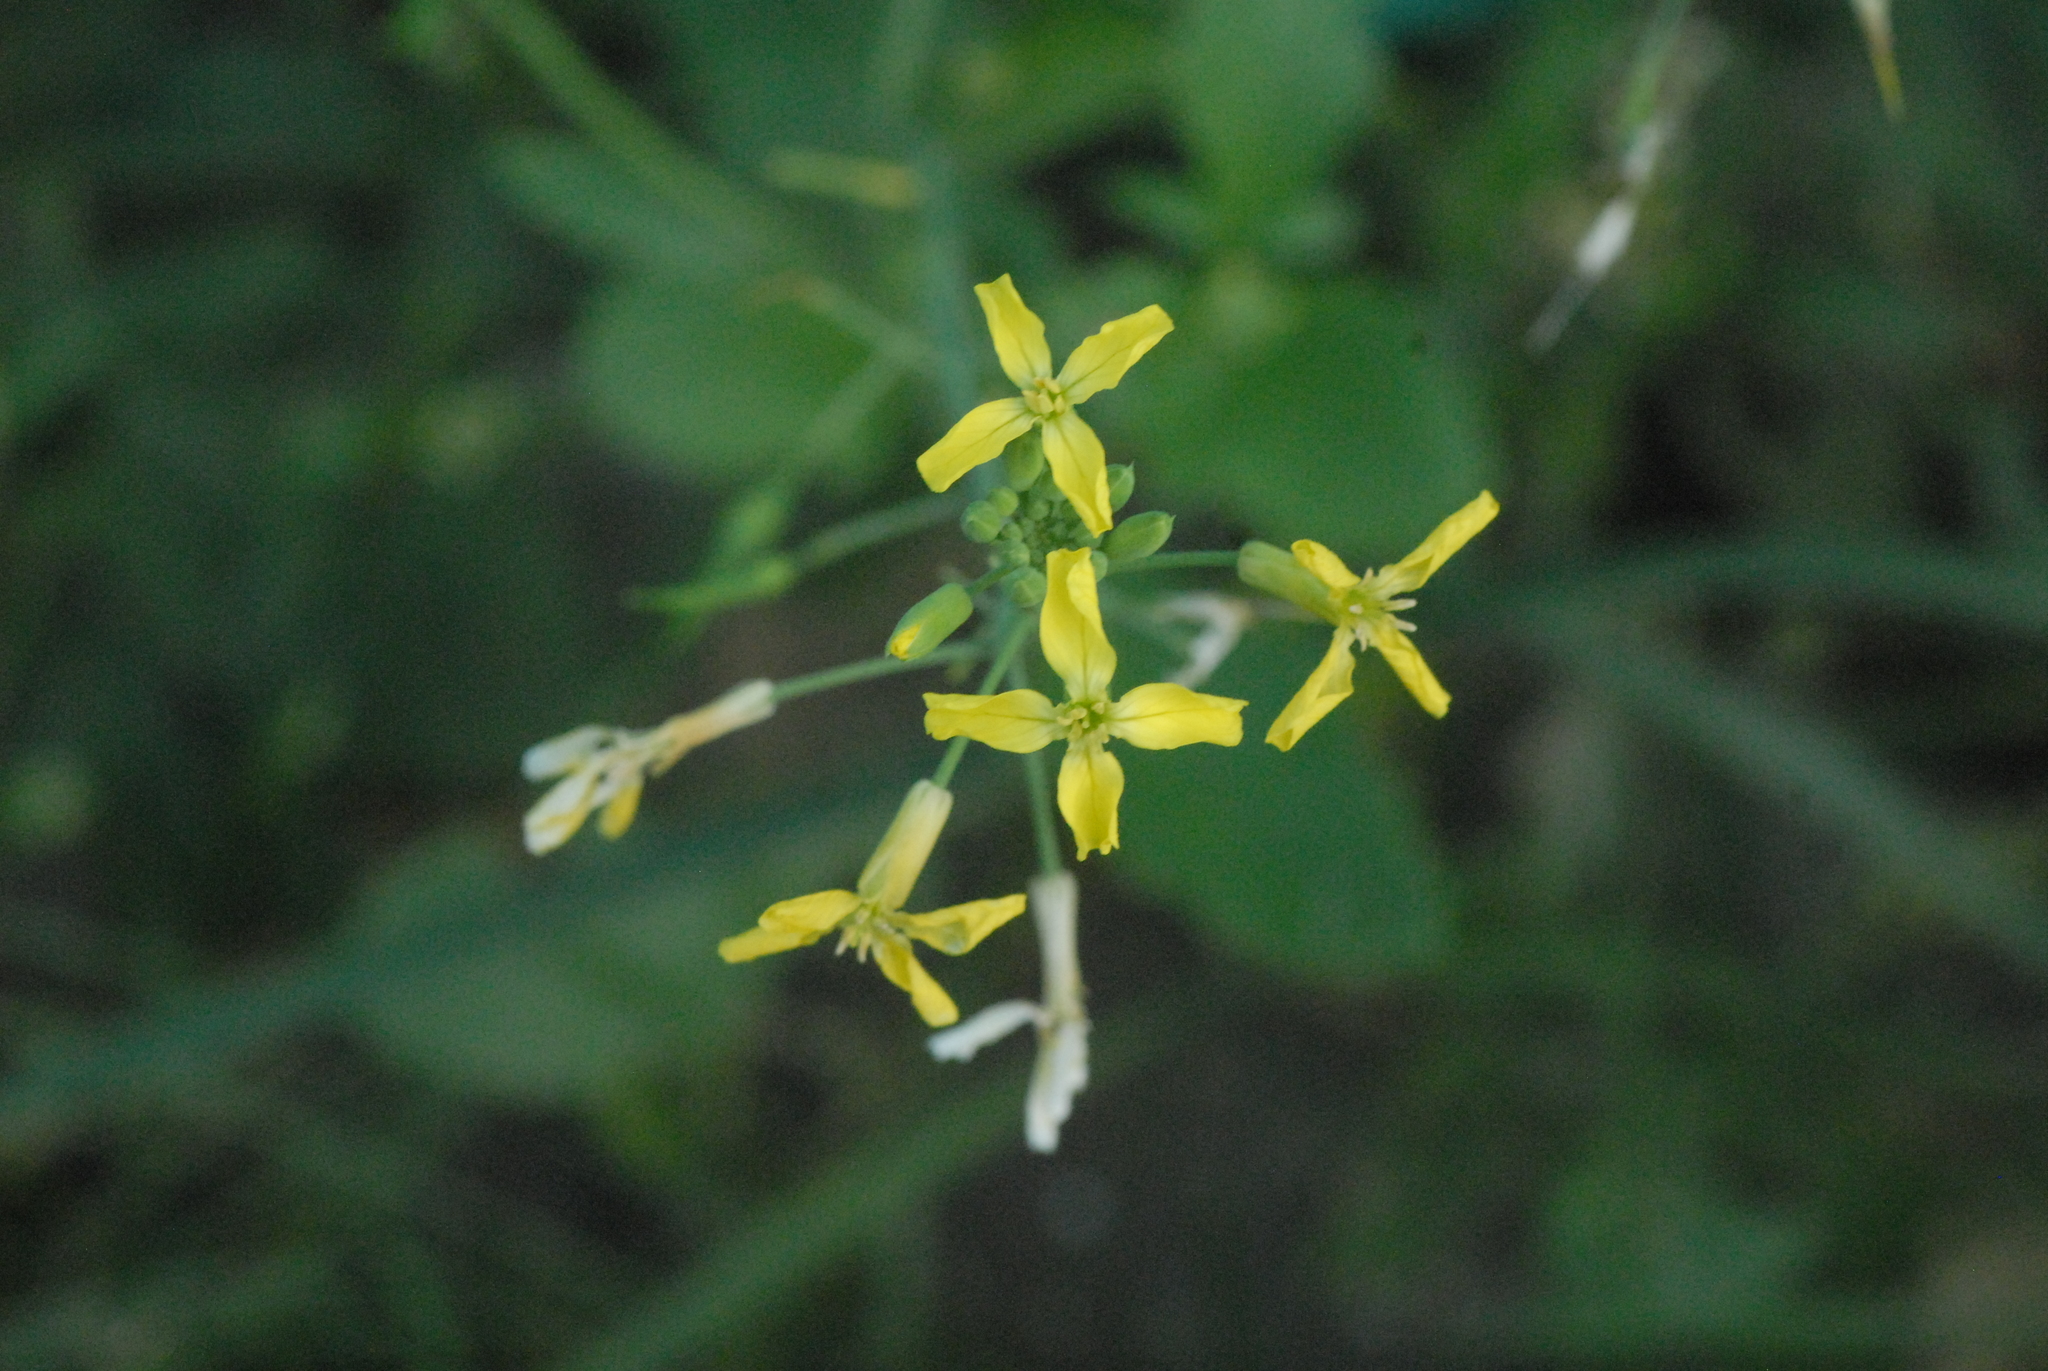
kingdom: Plantae
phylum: Tracheophyta
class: Magnoliopsida
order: Brassicales
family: Brassicaceae
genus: Raphanus
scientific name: Raphanus raphanistrum
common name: Wild radish
